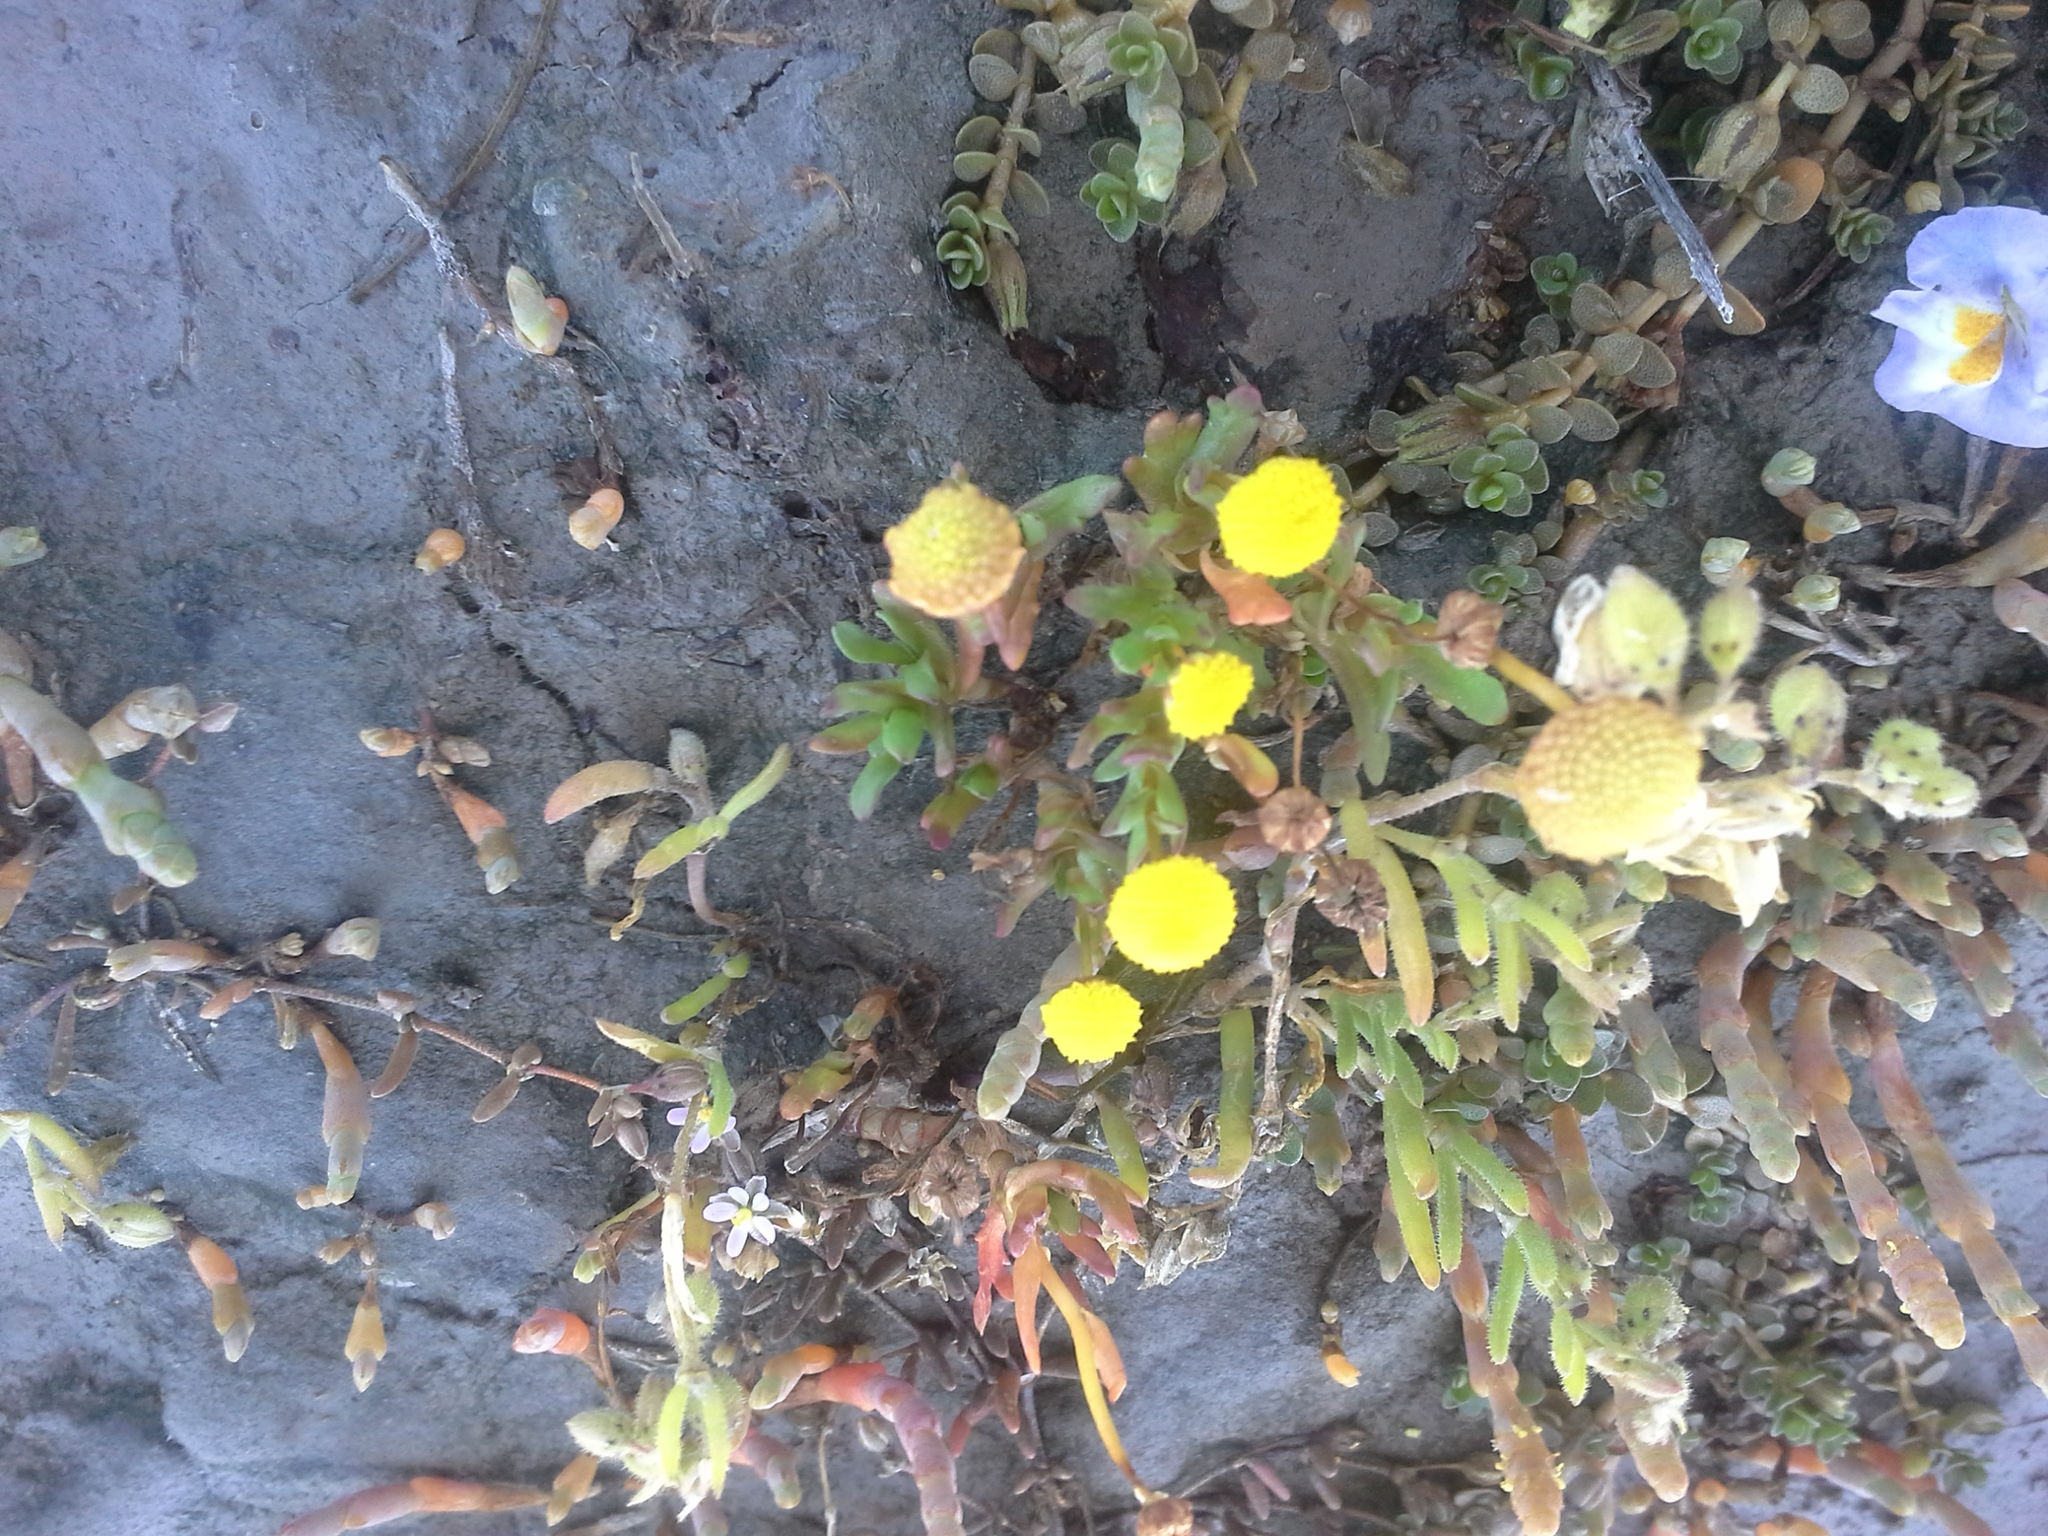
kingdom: Plantae
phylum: Tracheophyta
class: Magnoliopsida
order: Asterales
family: Asteraceae
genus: Cotula
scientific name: Cotula coronopifolia
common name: Buttonweed
